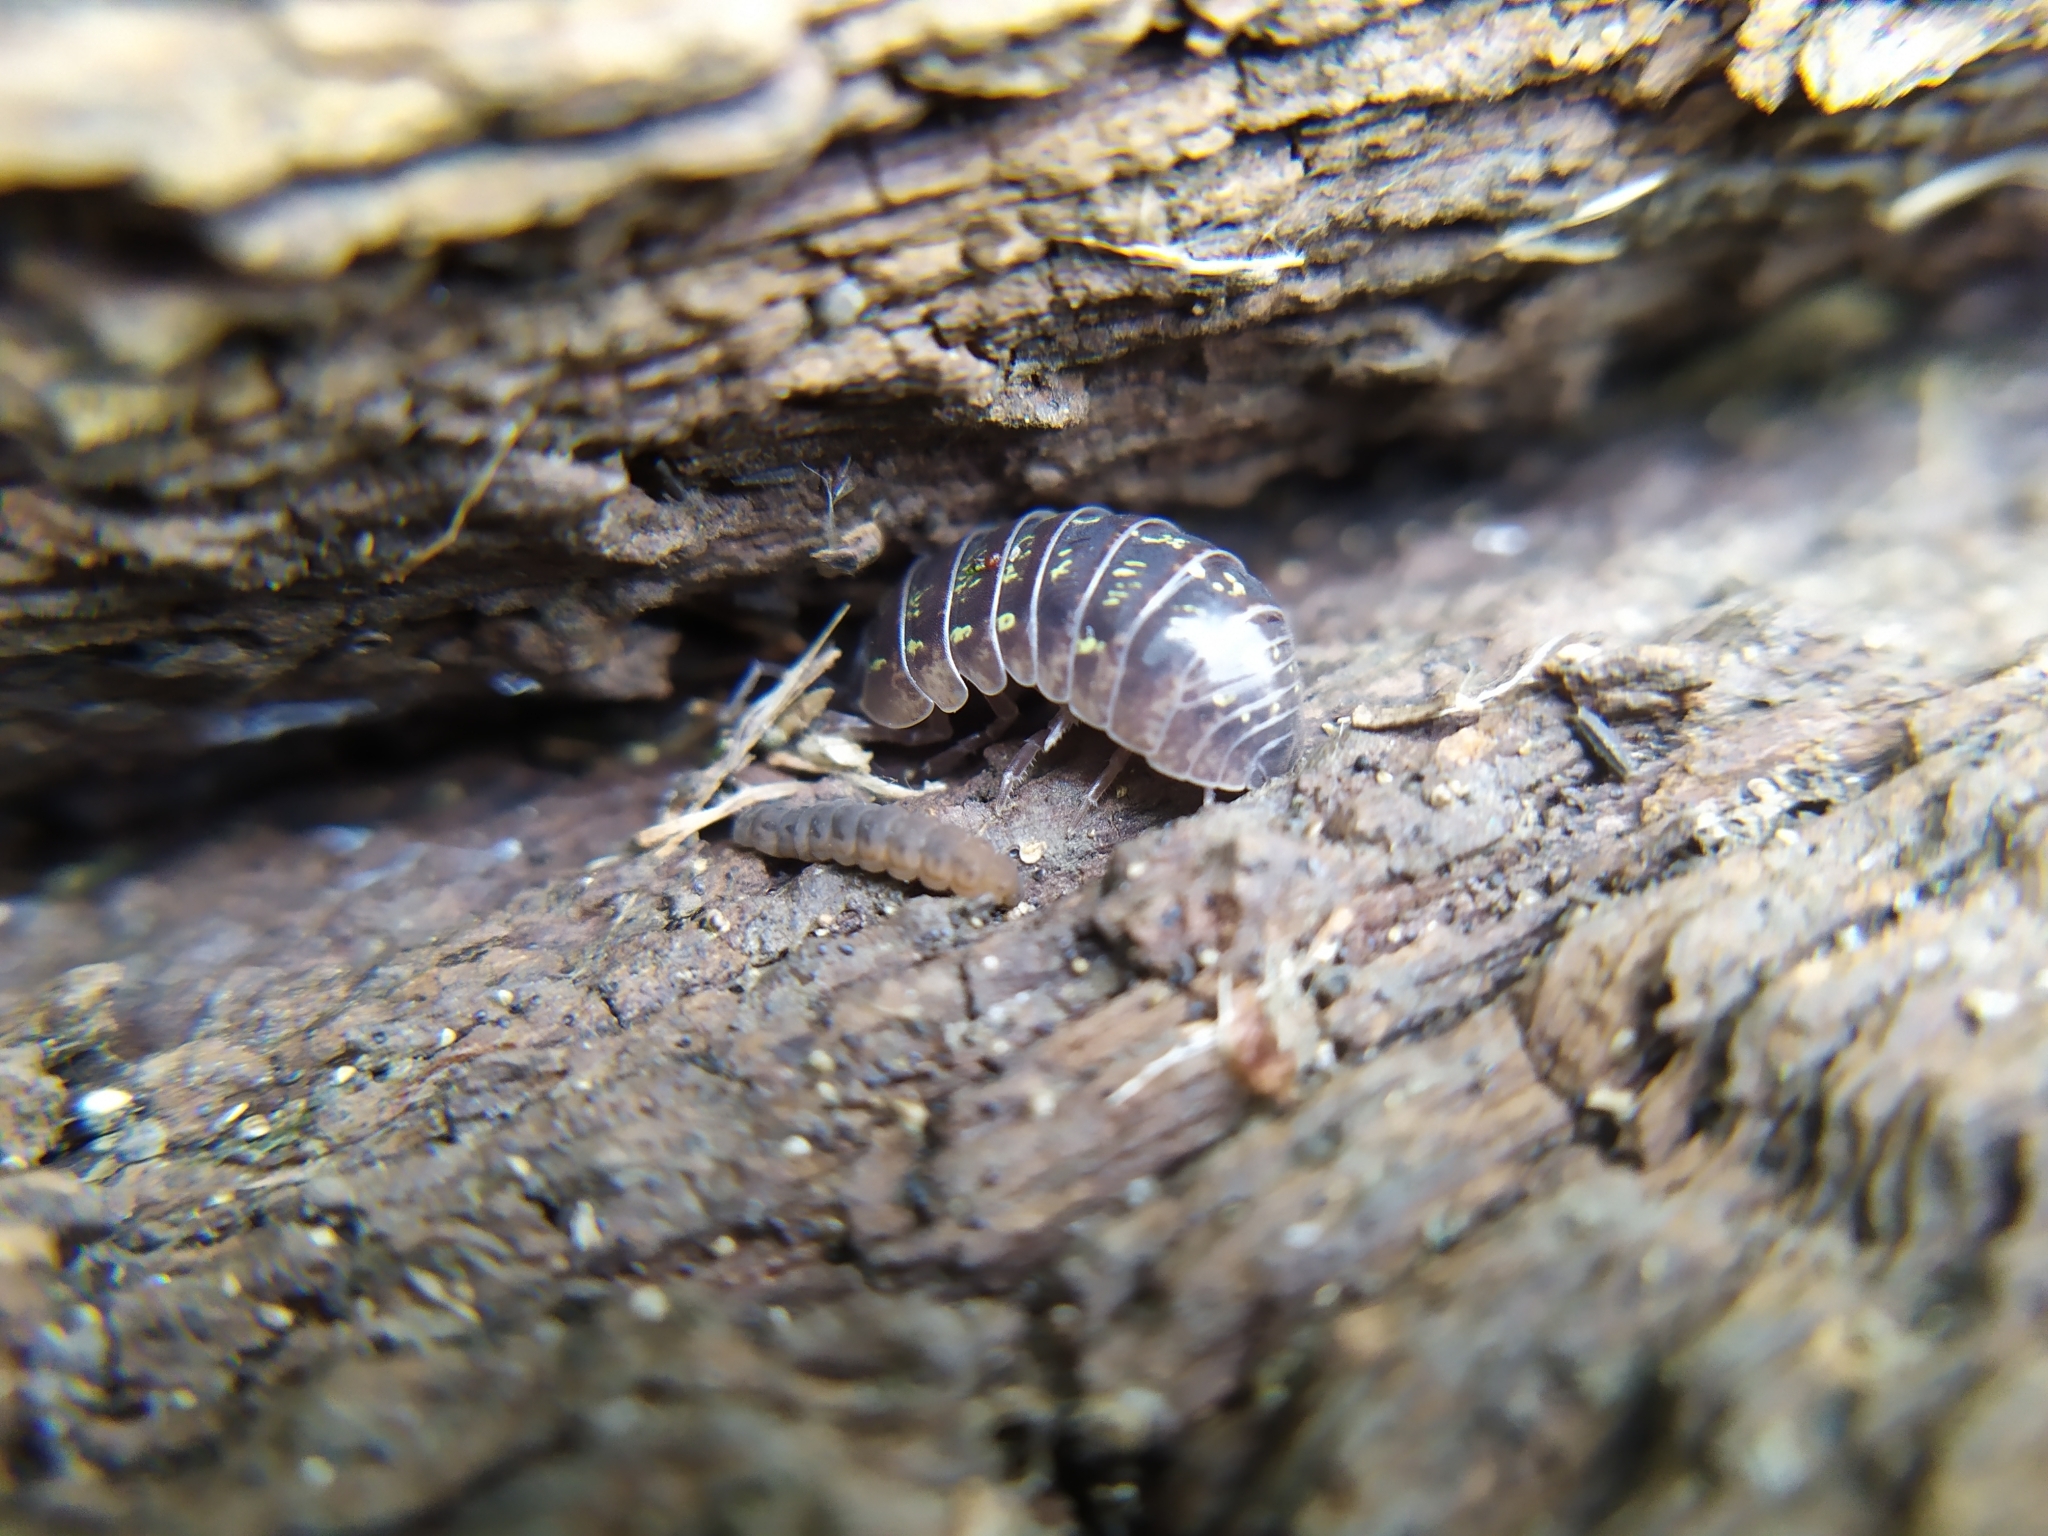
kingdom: Animalia
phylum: Arthropoda
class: Malacostraca
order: Isopoda
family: Armadillidiidae
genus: Armadillidium
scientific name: Armadillidium vulgare
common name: Common pill woodlouse
